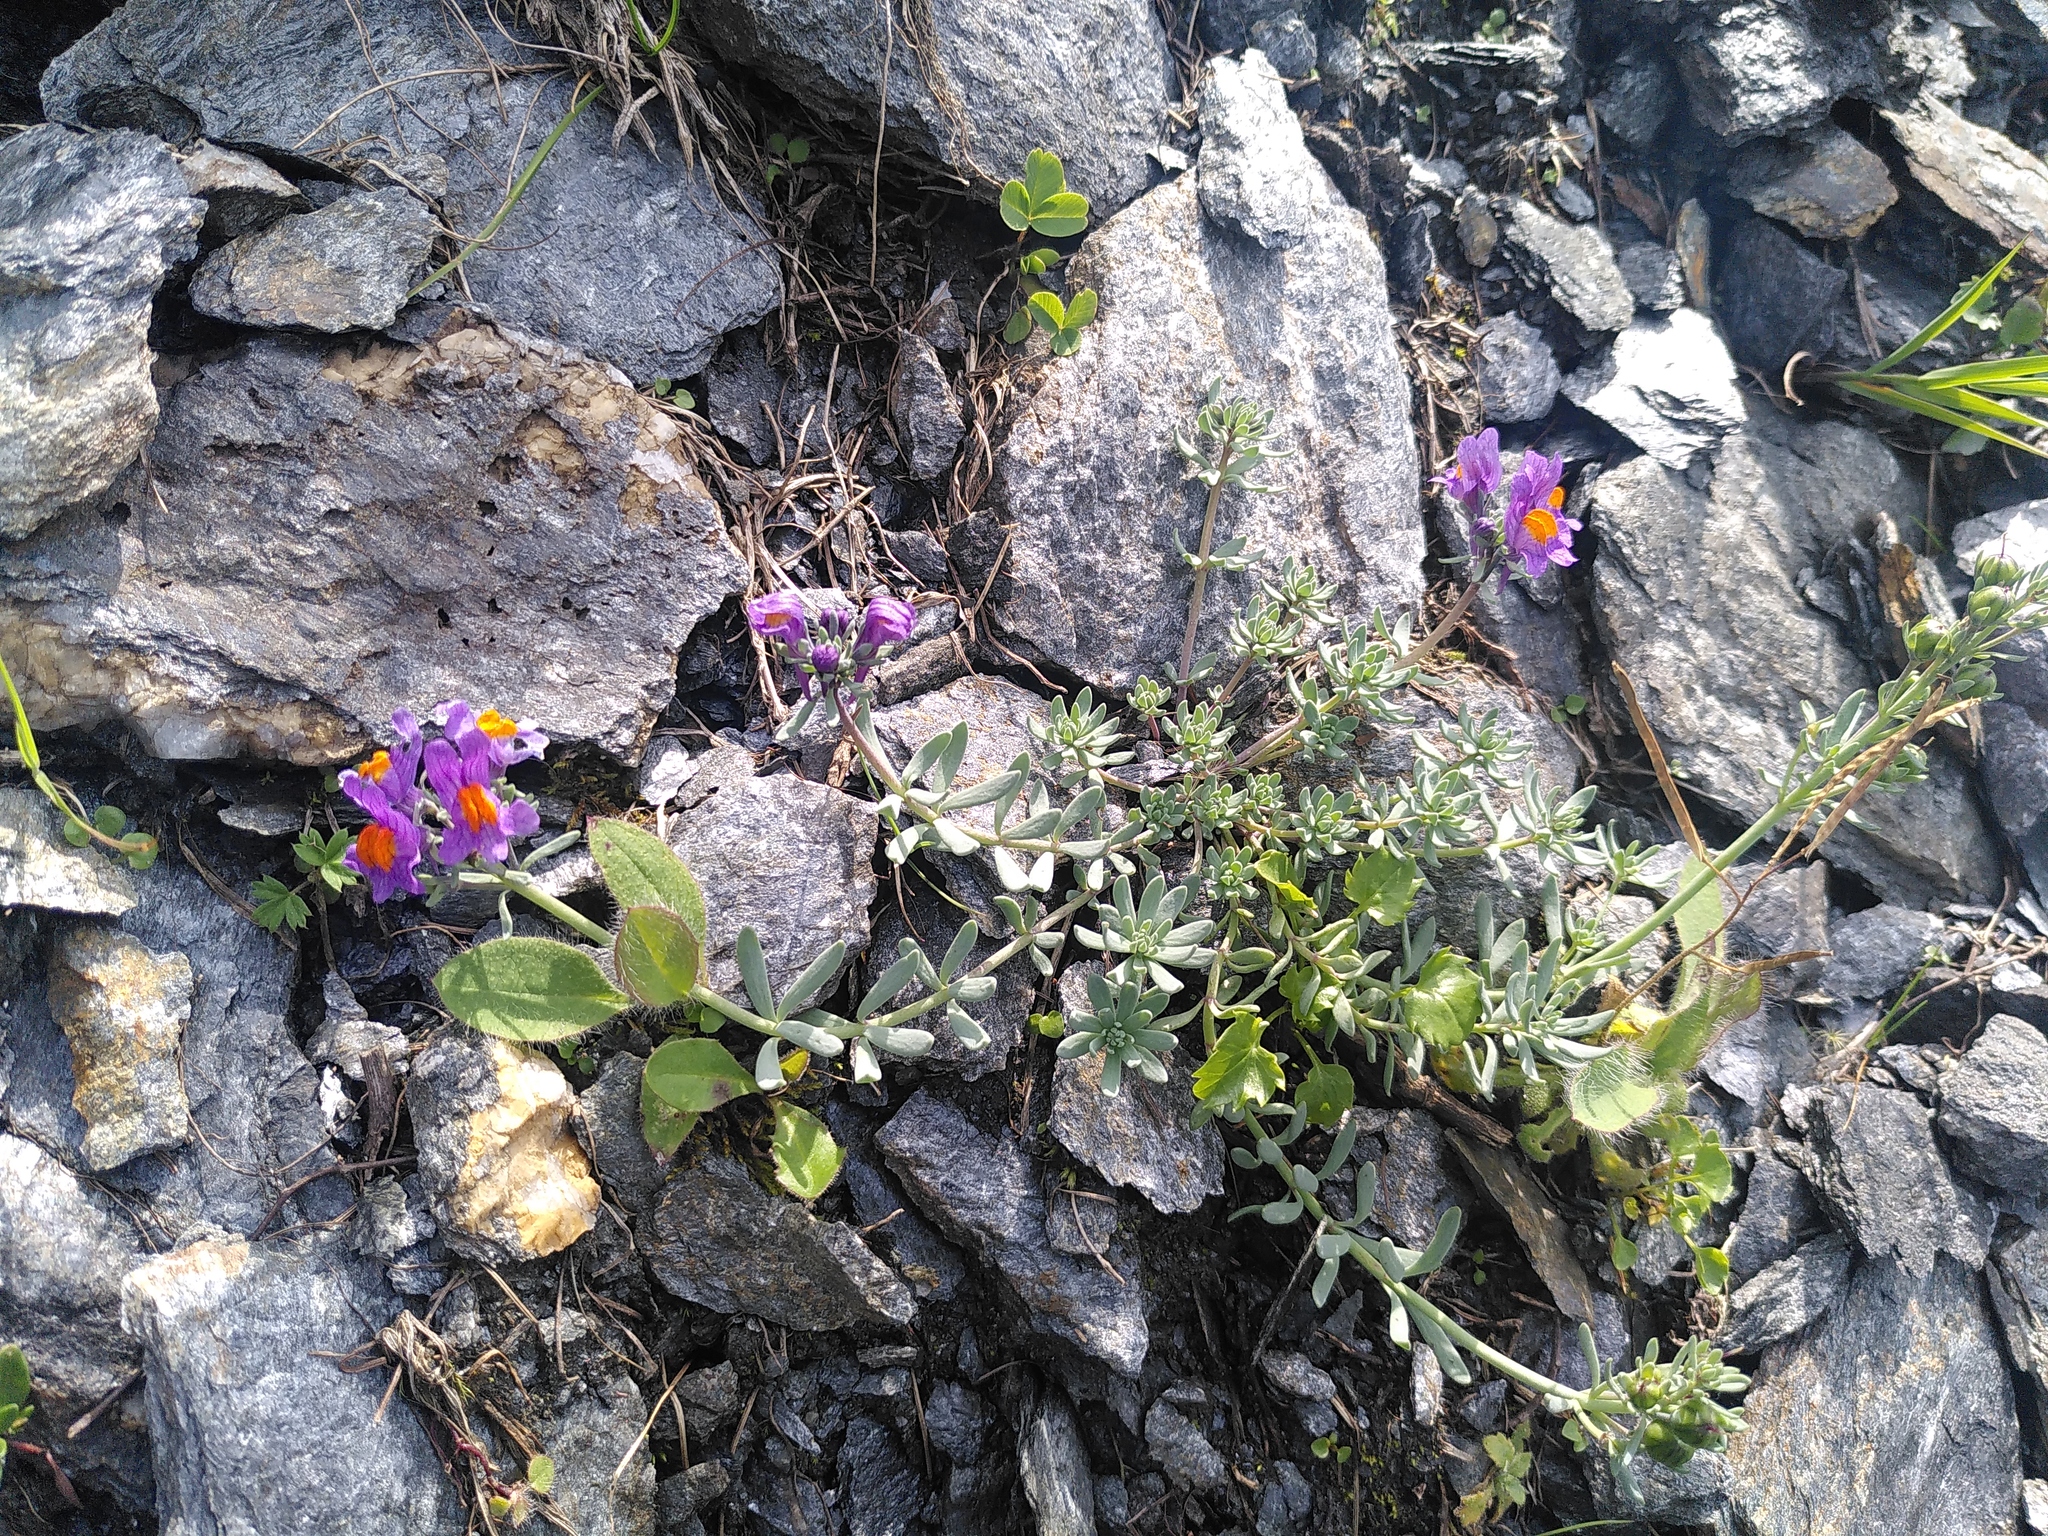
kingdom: Plantae
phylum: Tracheophyta
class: Magnoliopsida
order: Lamiales
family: Plantaginaceae
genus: Linaria
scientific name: Linaria alpina
